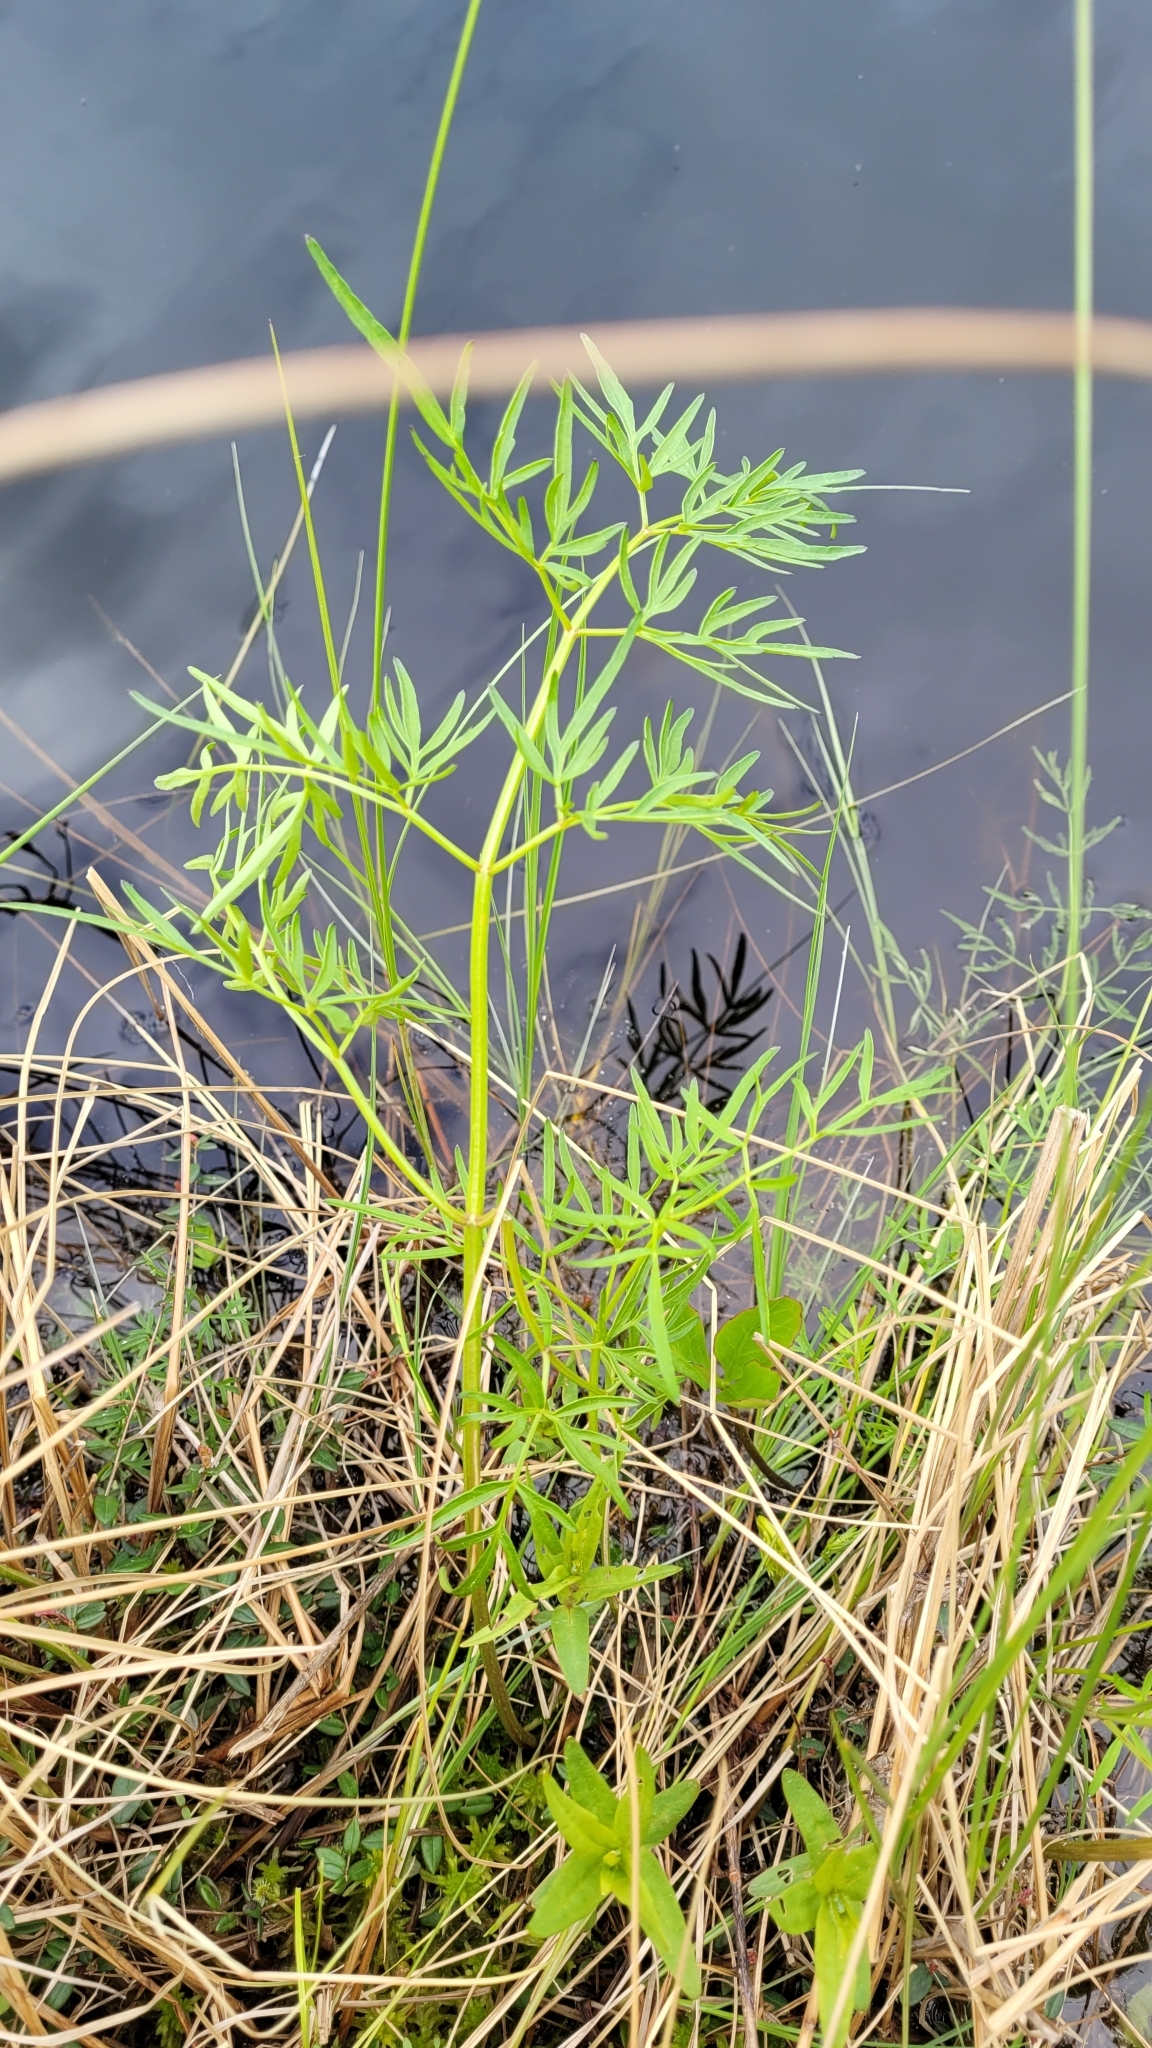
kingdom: Plantae
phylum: Tracheophyta
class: Magnoliopsida
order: Apiales
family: Apiaceae
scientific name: Apiaceae
